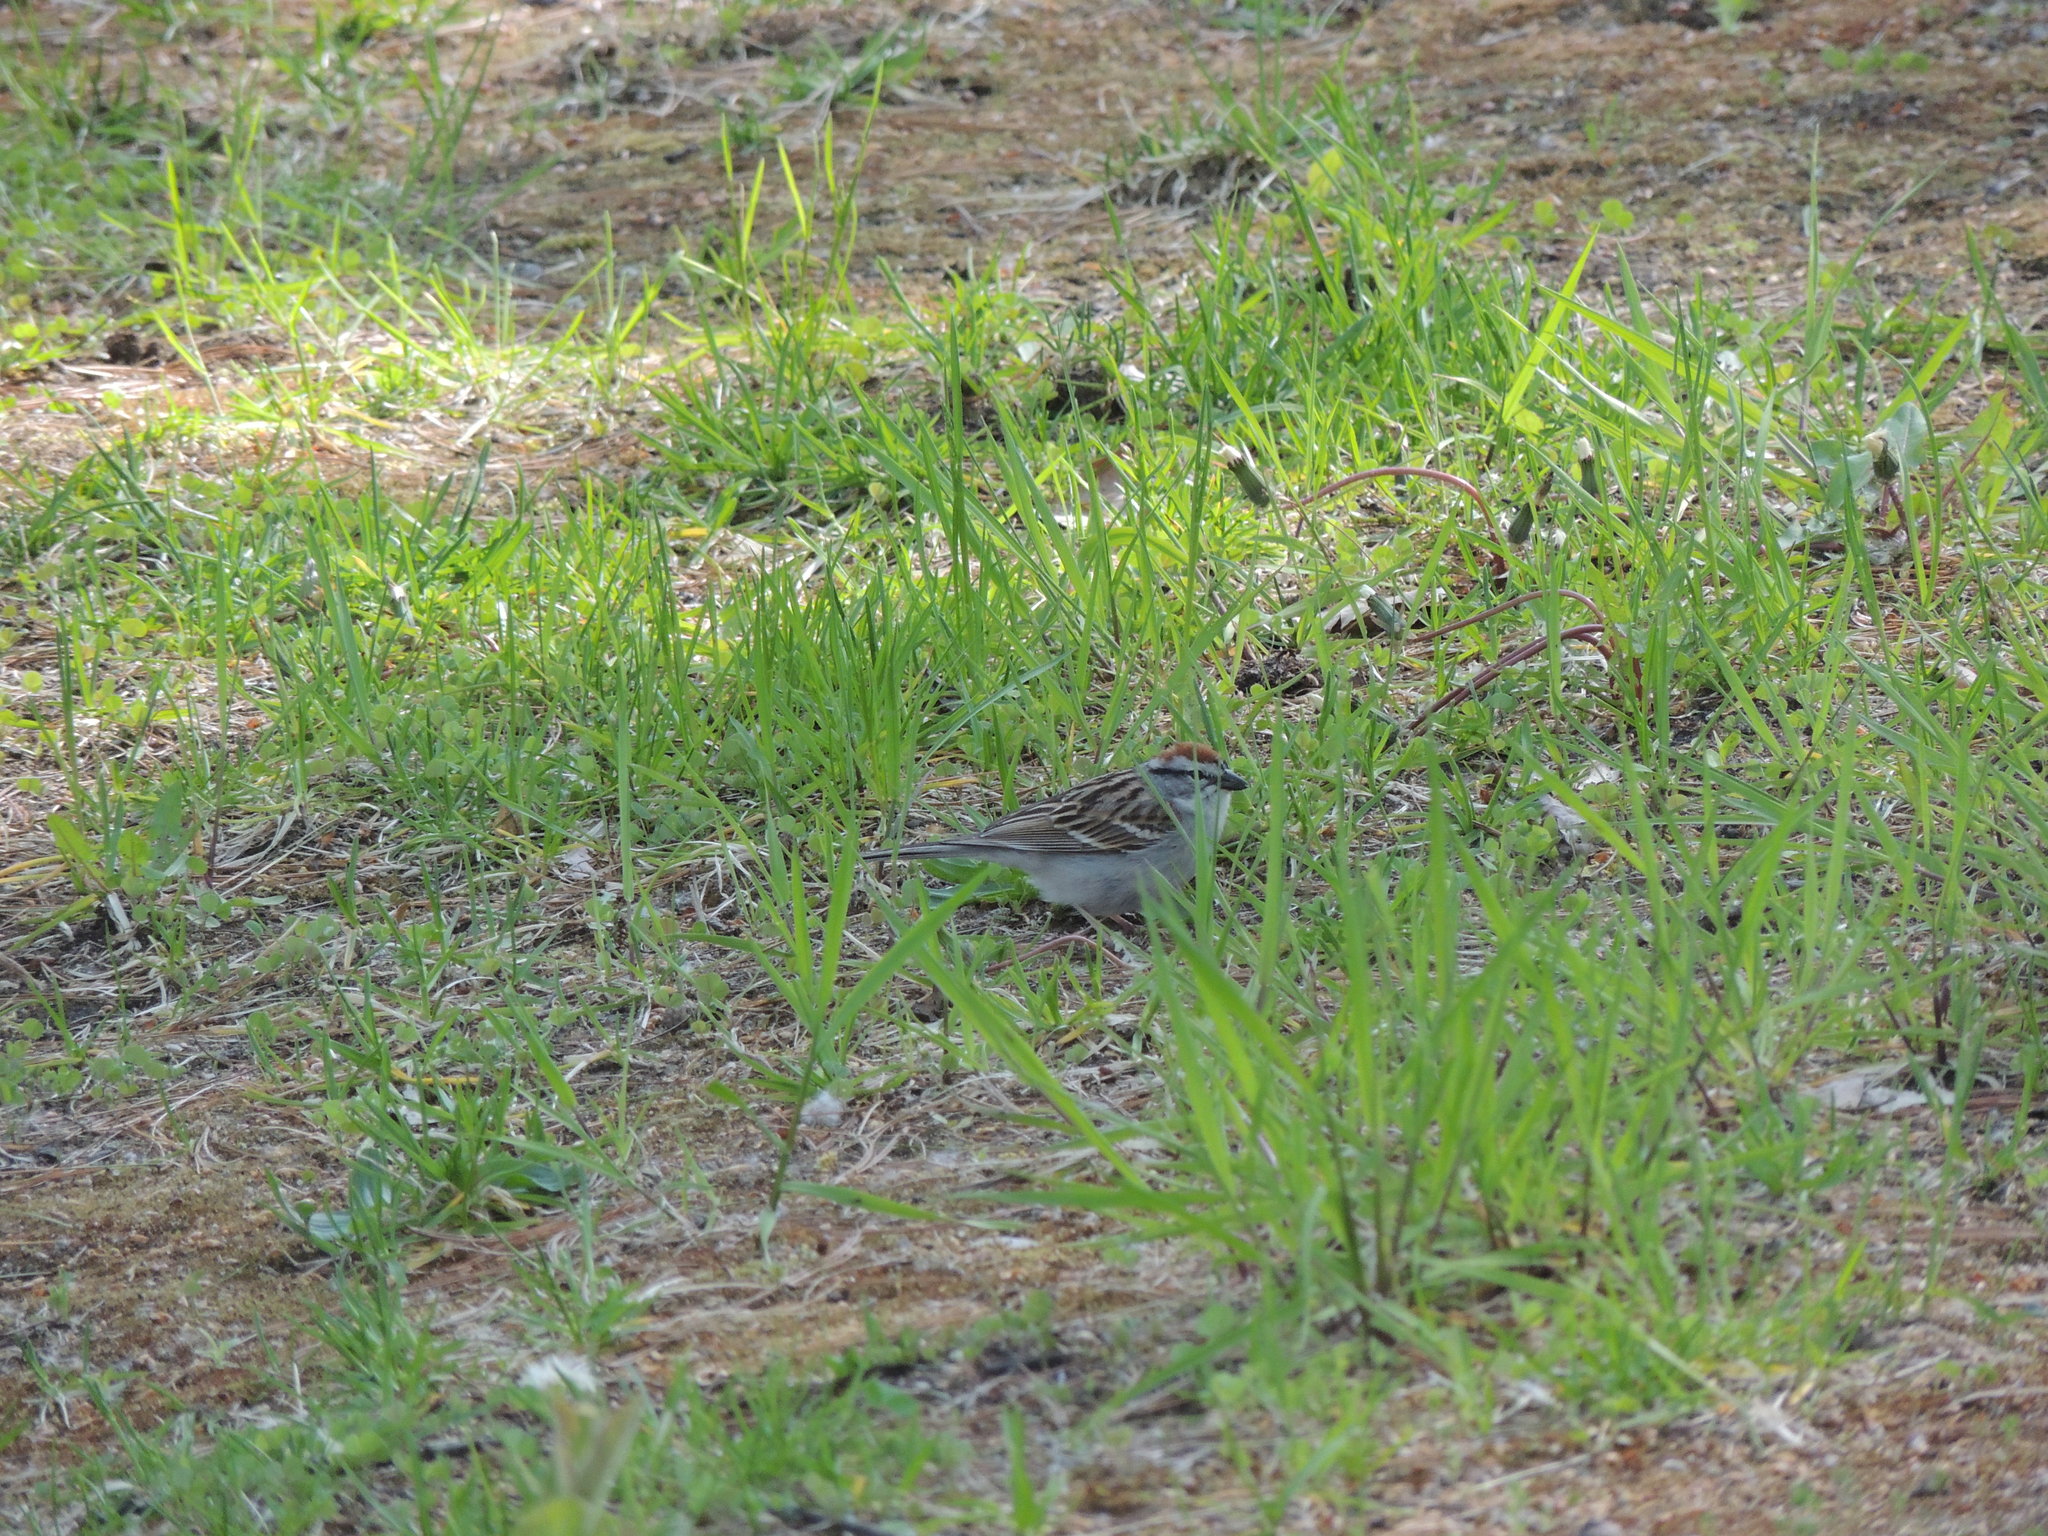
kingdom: Animalia
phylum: Chordata
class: Aves
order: Passeriformes
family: Passerellidae
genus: Spizella
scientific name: Spizella passerina
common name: Chipping sparrow
